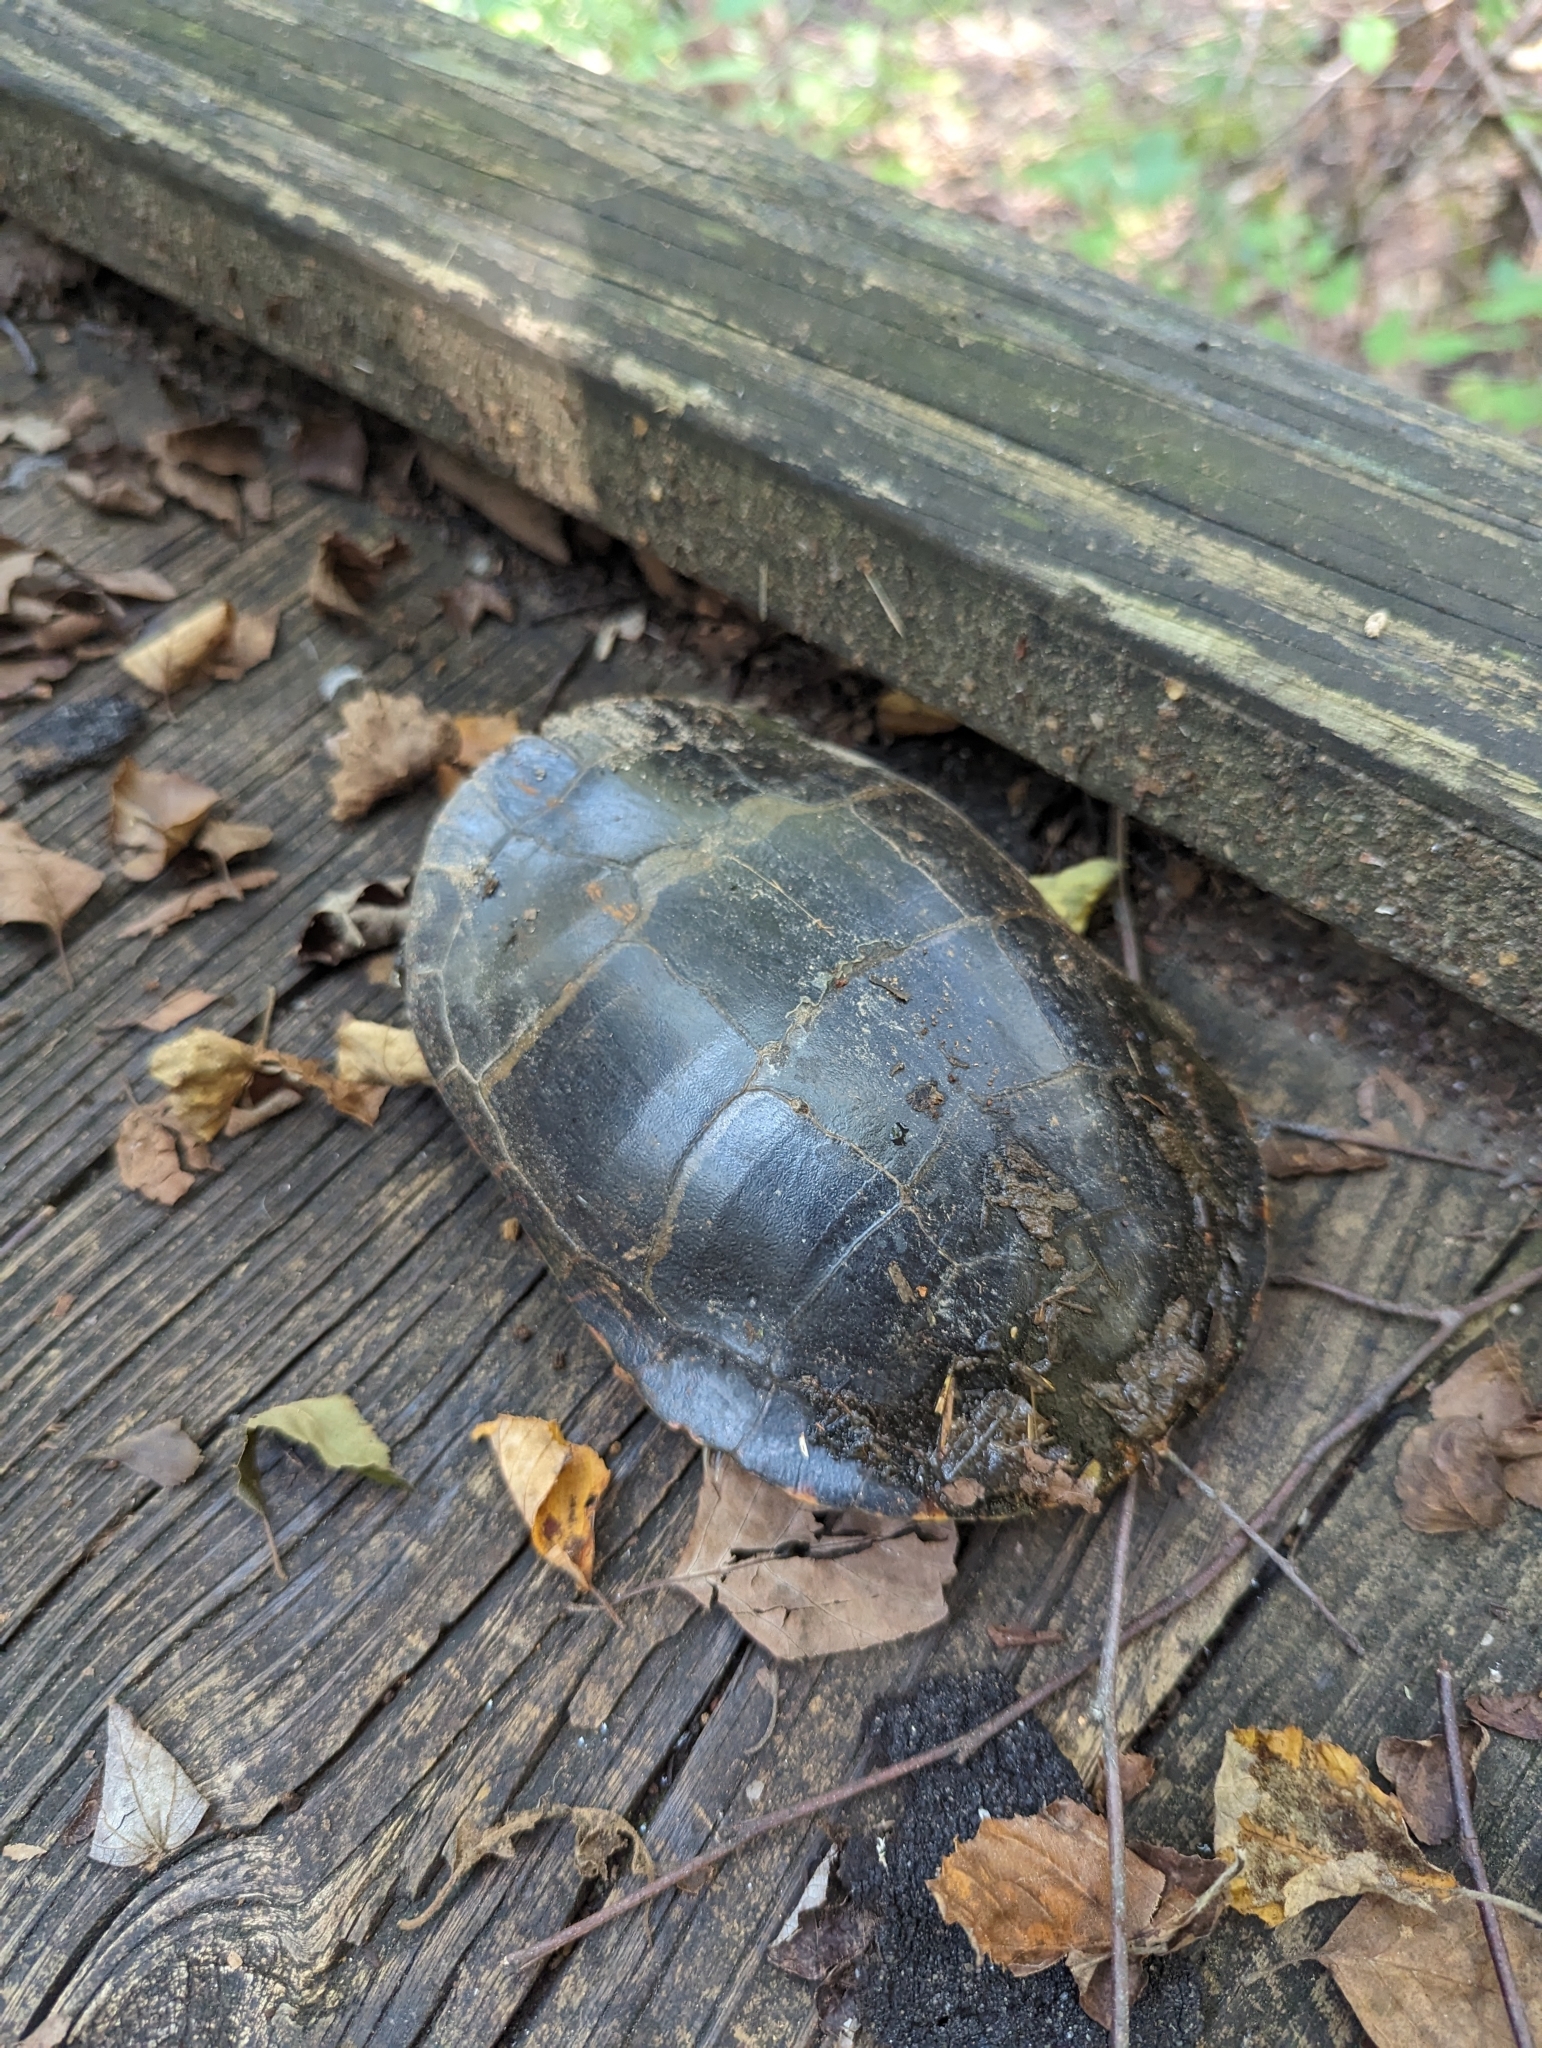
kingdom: Animalia
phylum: Chordata
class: Testudines
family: Emydidae
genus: Chrysemys
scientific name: Chrysemys picta
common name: Painted turtle
